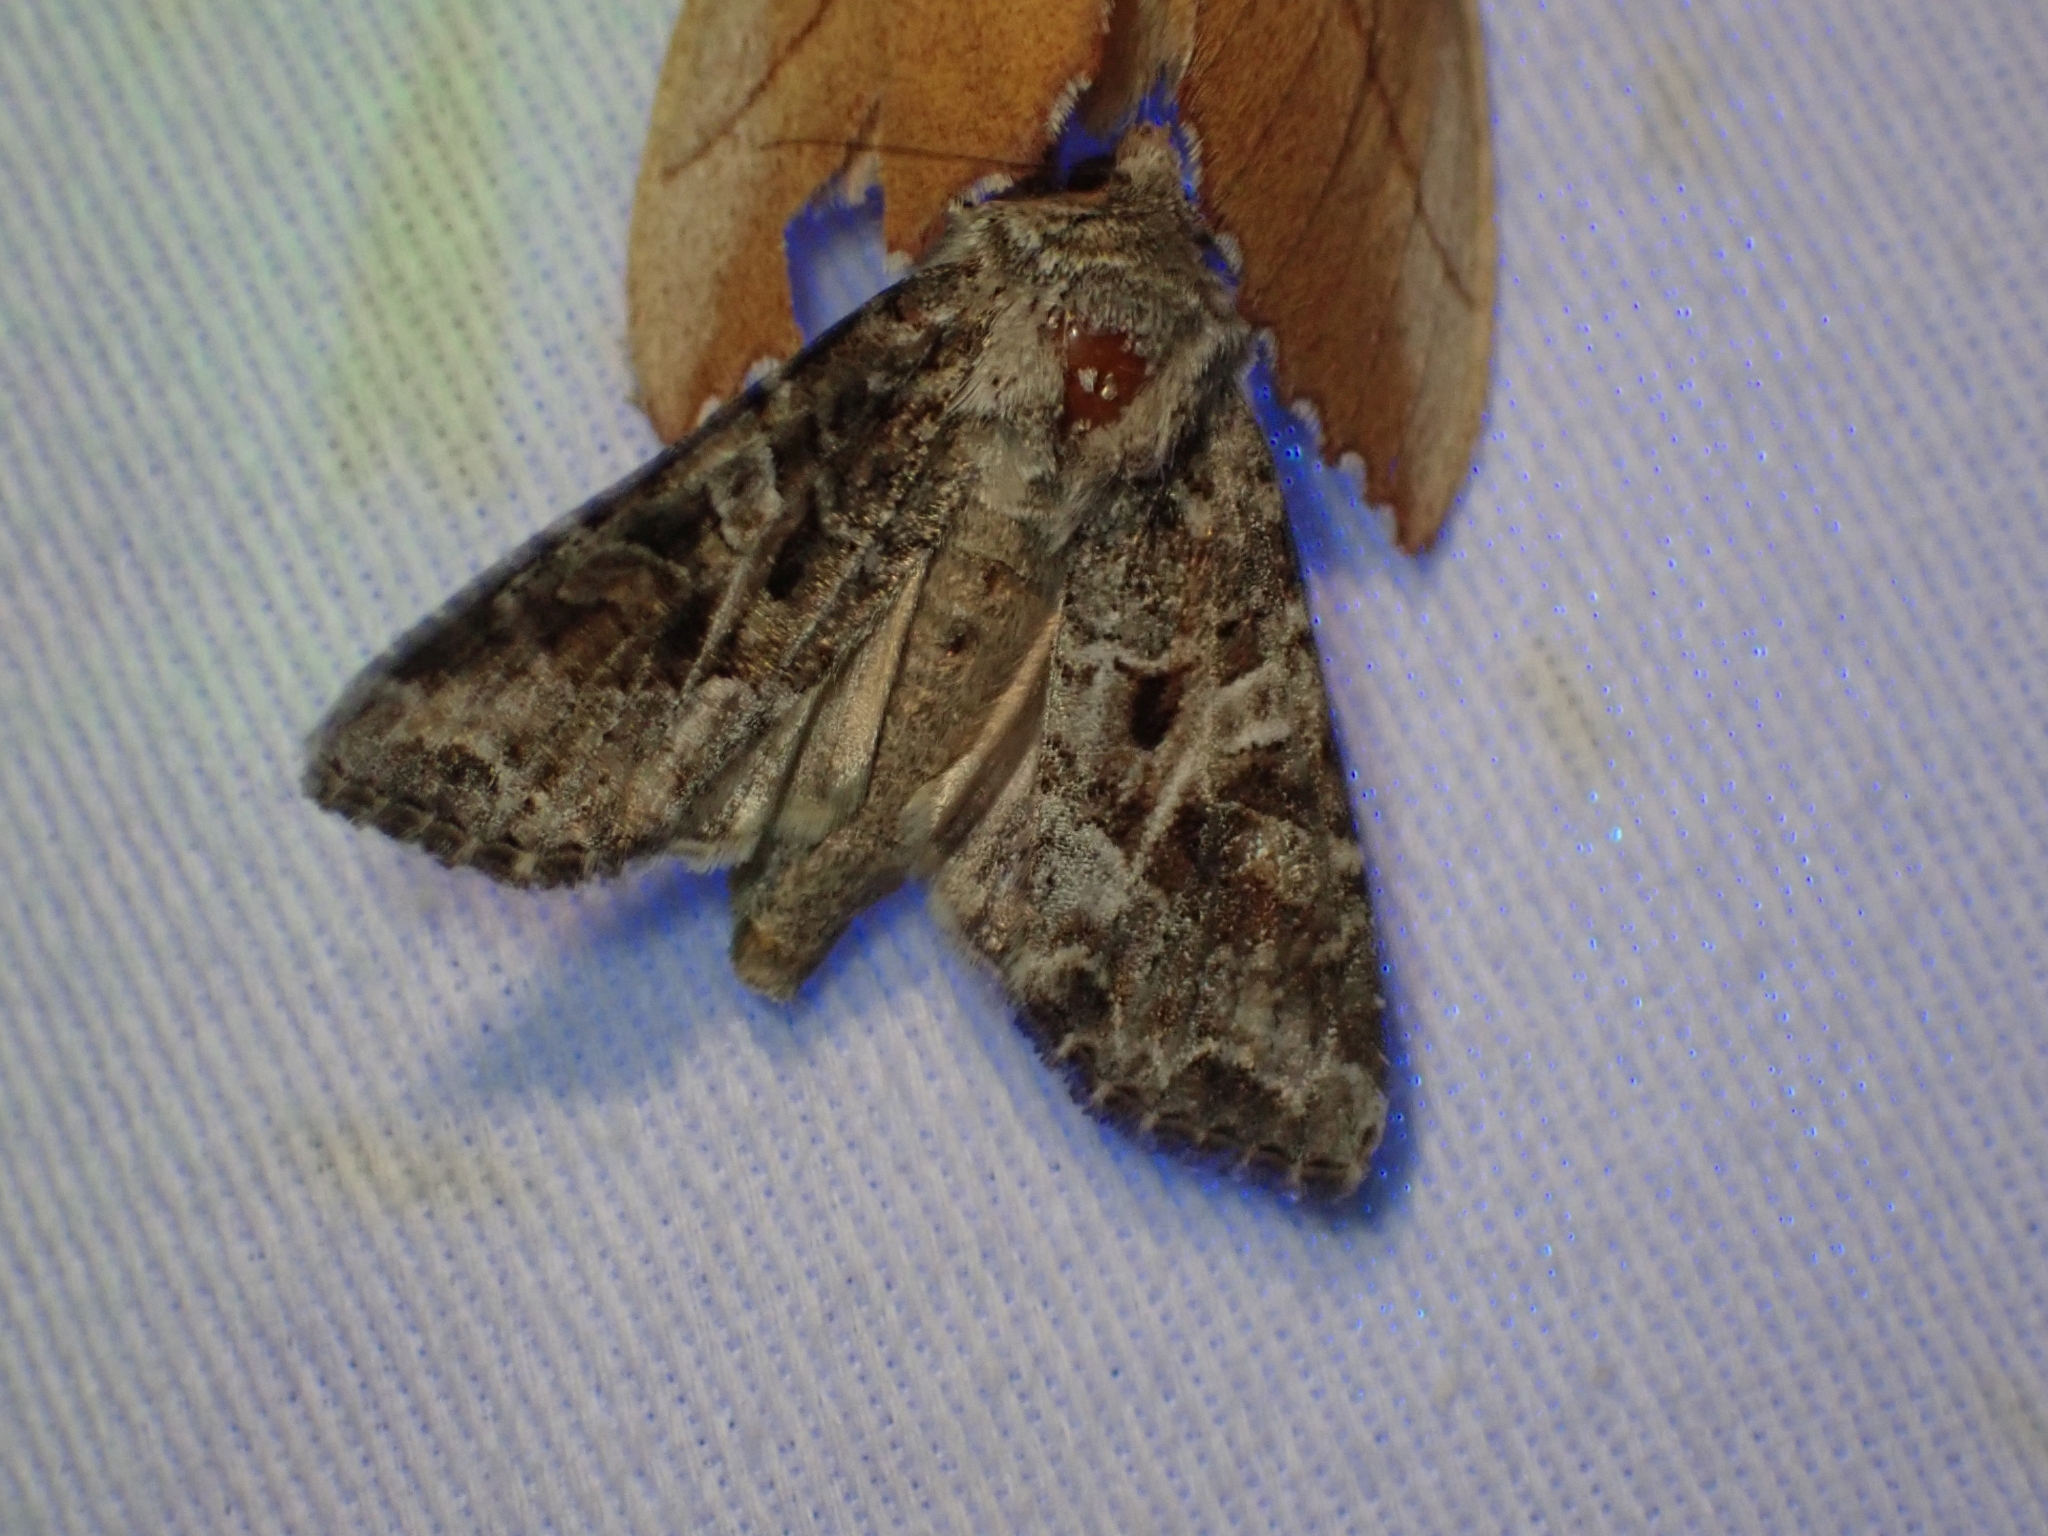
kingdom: Animalia
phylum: Arthropoda
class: Insecta
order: Lepidoptera
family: Noctuidae
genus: Trichordestra
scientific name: Trichordestra liquida
